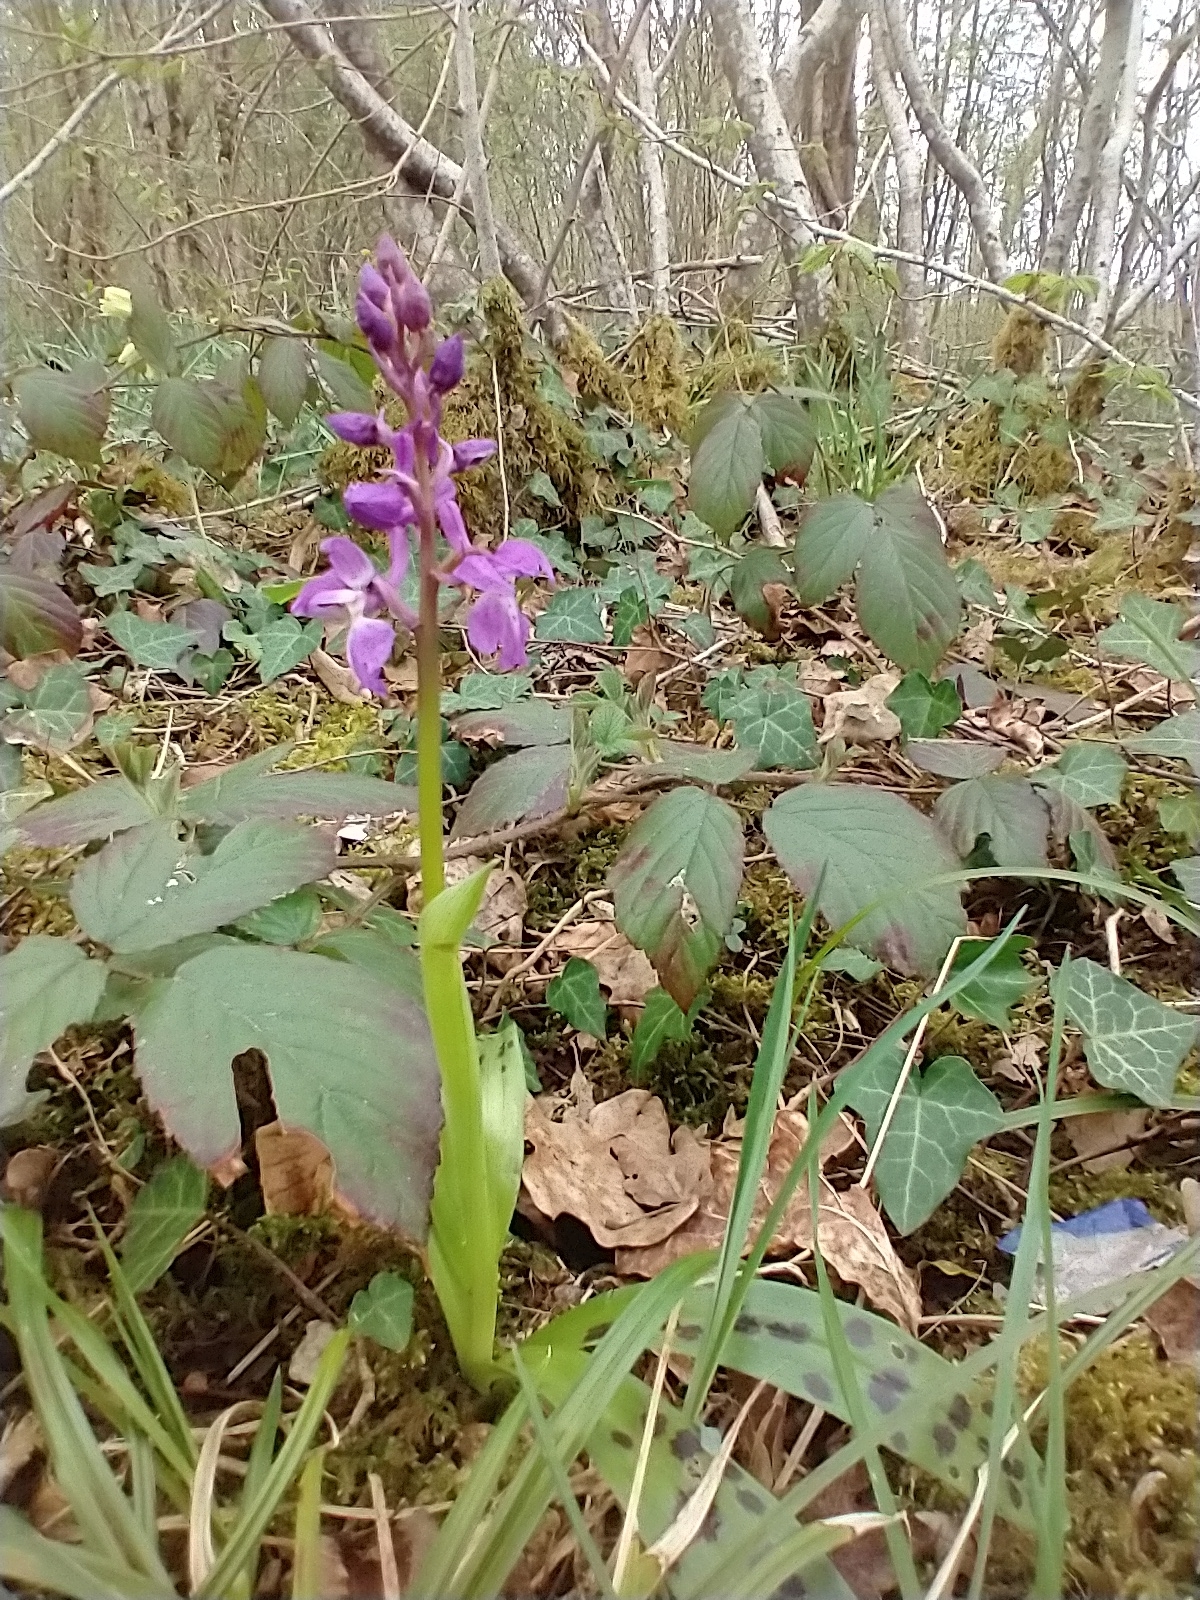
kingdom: Plantae
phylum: Tracheophyta
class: Liliopsida
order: Asparagales
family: Orchidaceae
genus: Orchis
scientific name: Orchis mascula
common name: Early-purple orchid
